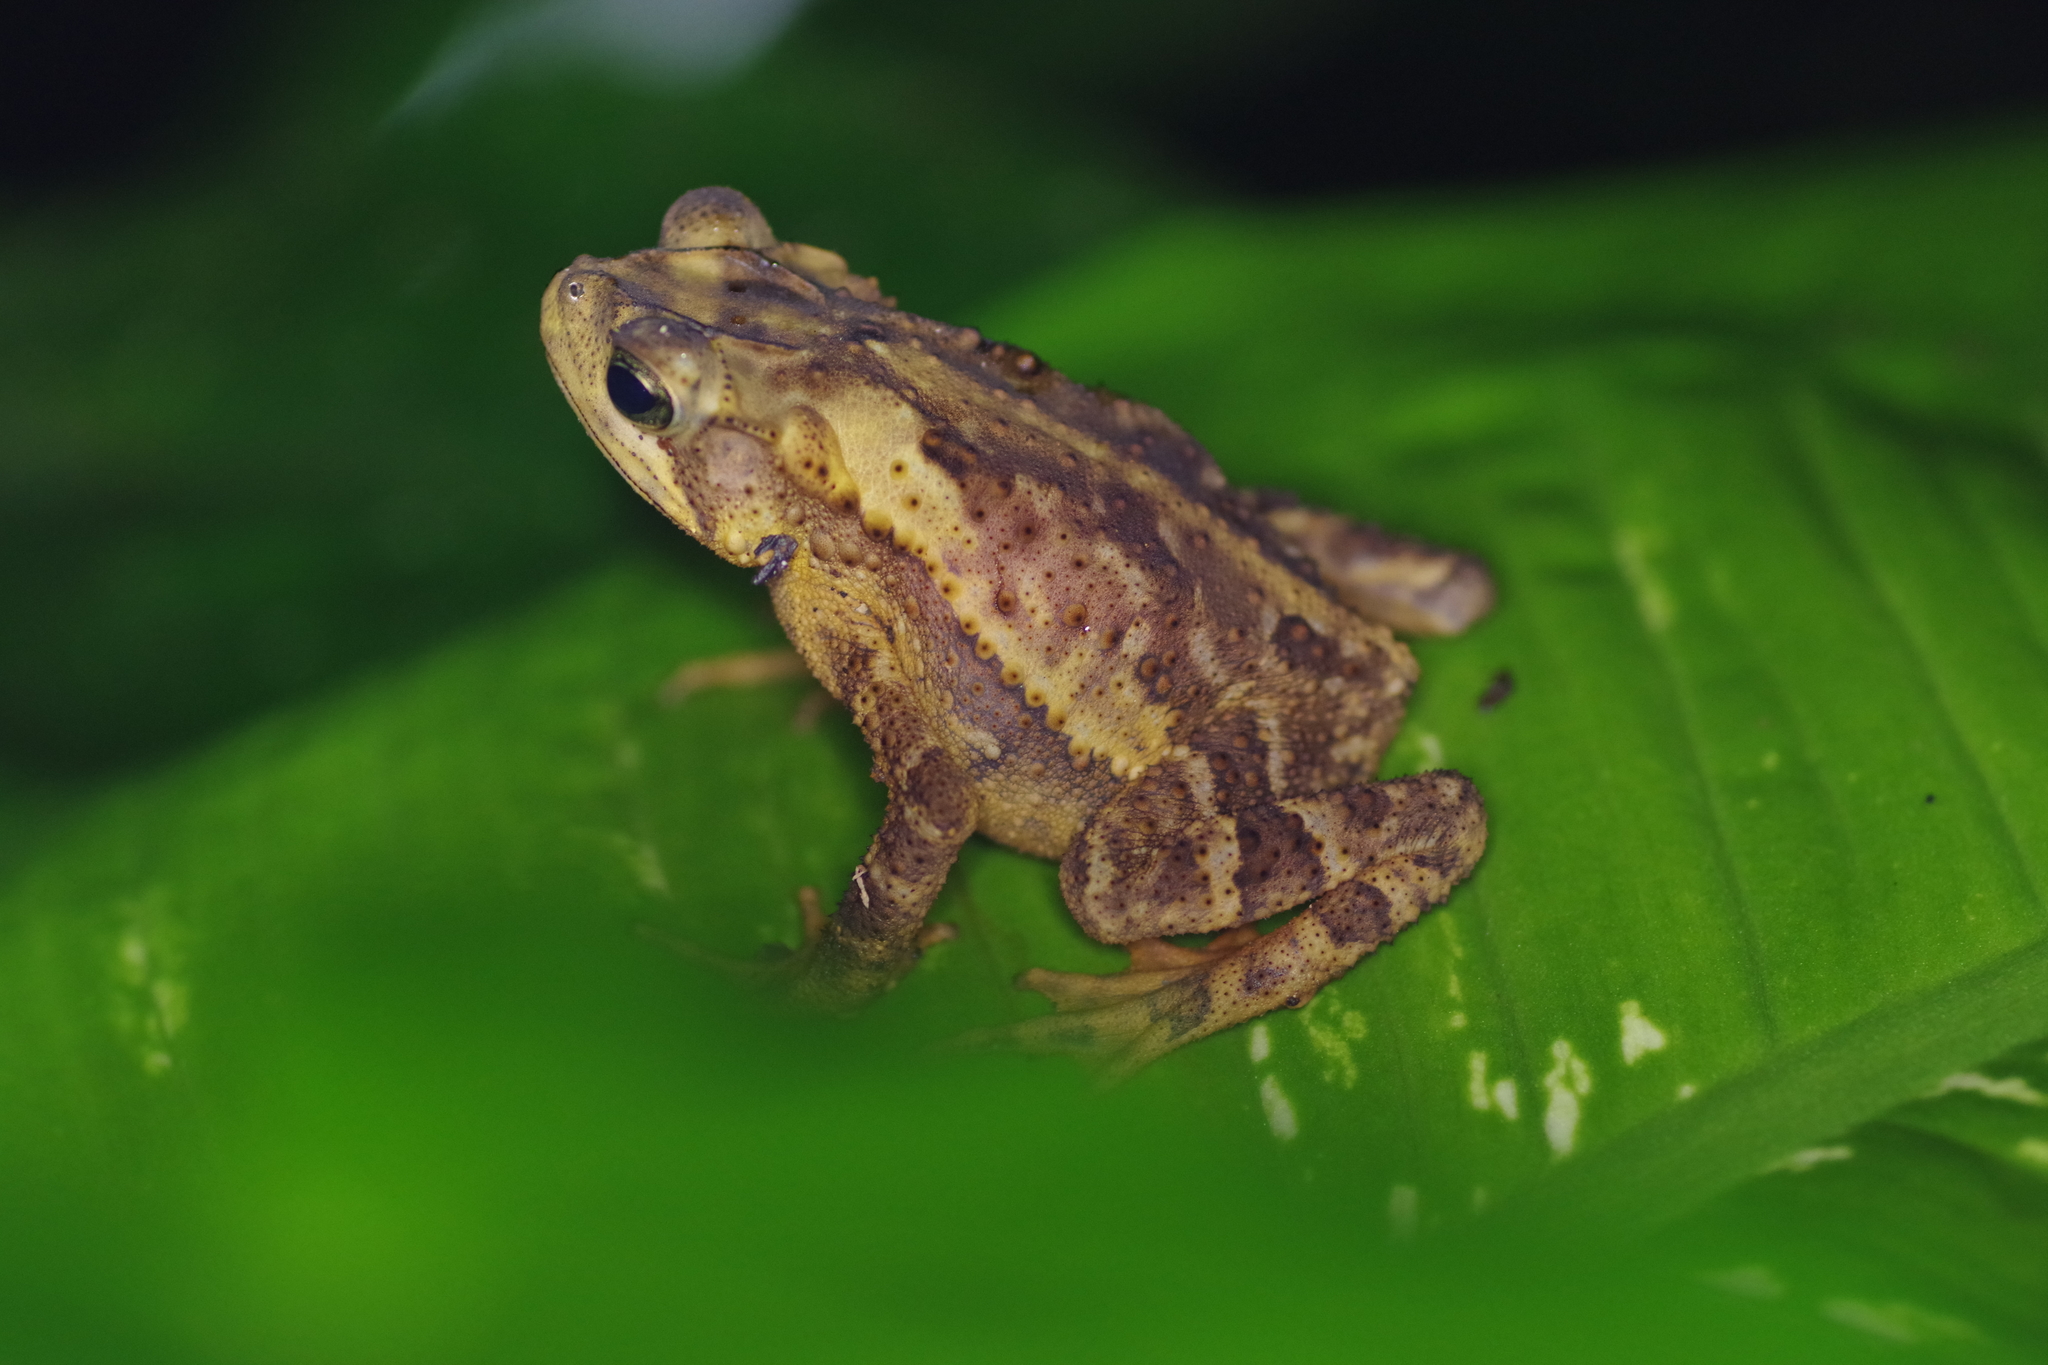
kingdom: Animalia
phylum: Chordata
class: Amphibia
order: Anura
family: Bufonidae
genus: Incilius
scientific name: Incilius coniferus
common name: Evergreen toad
